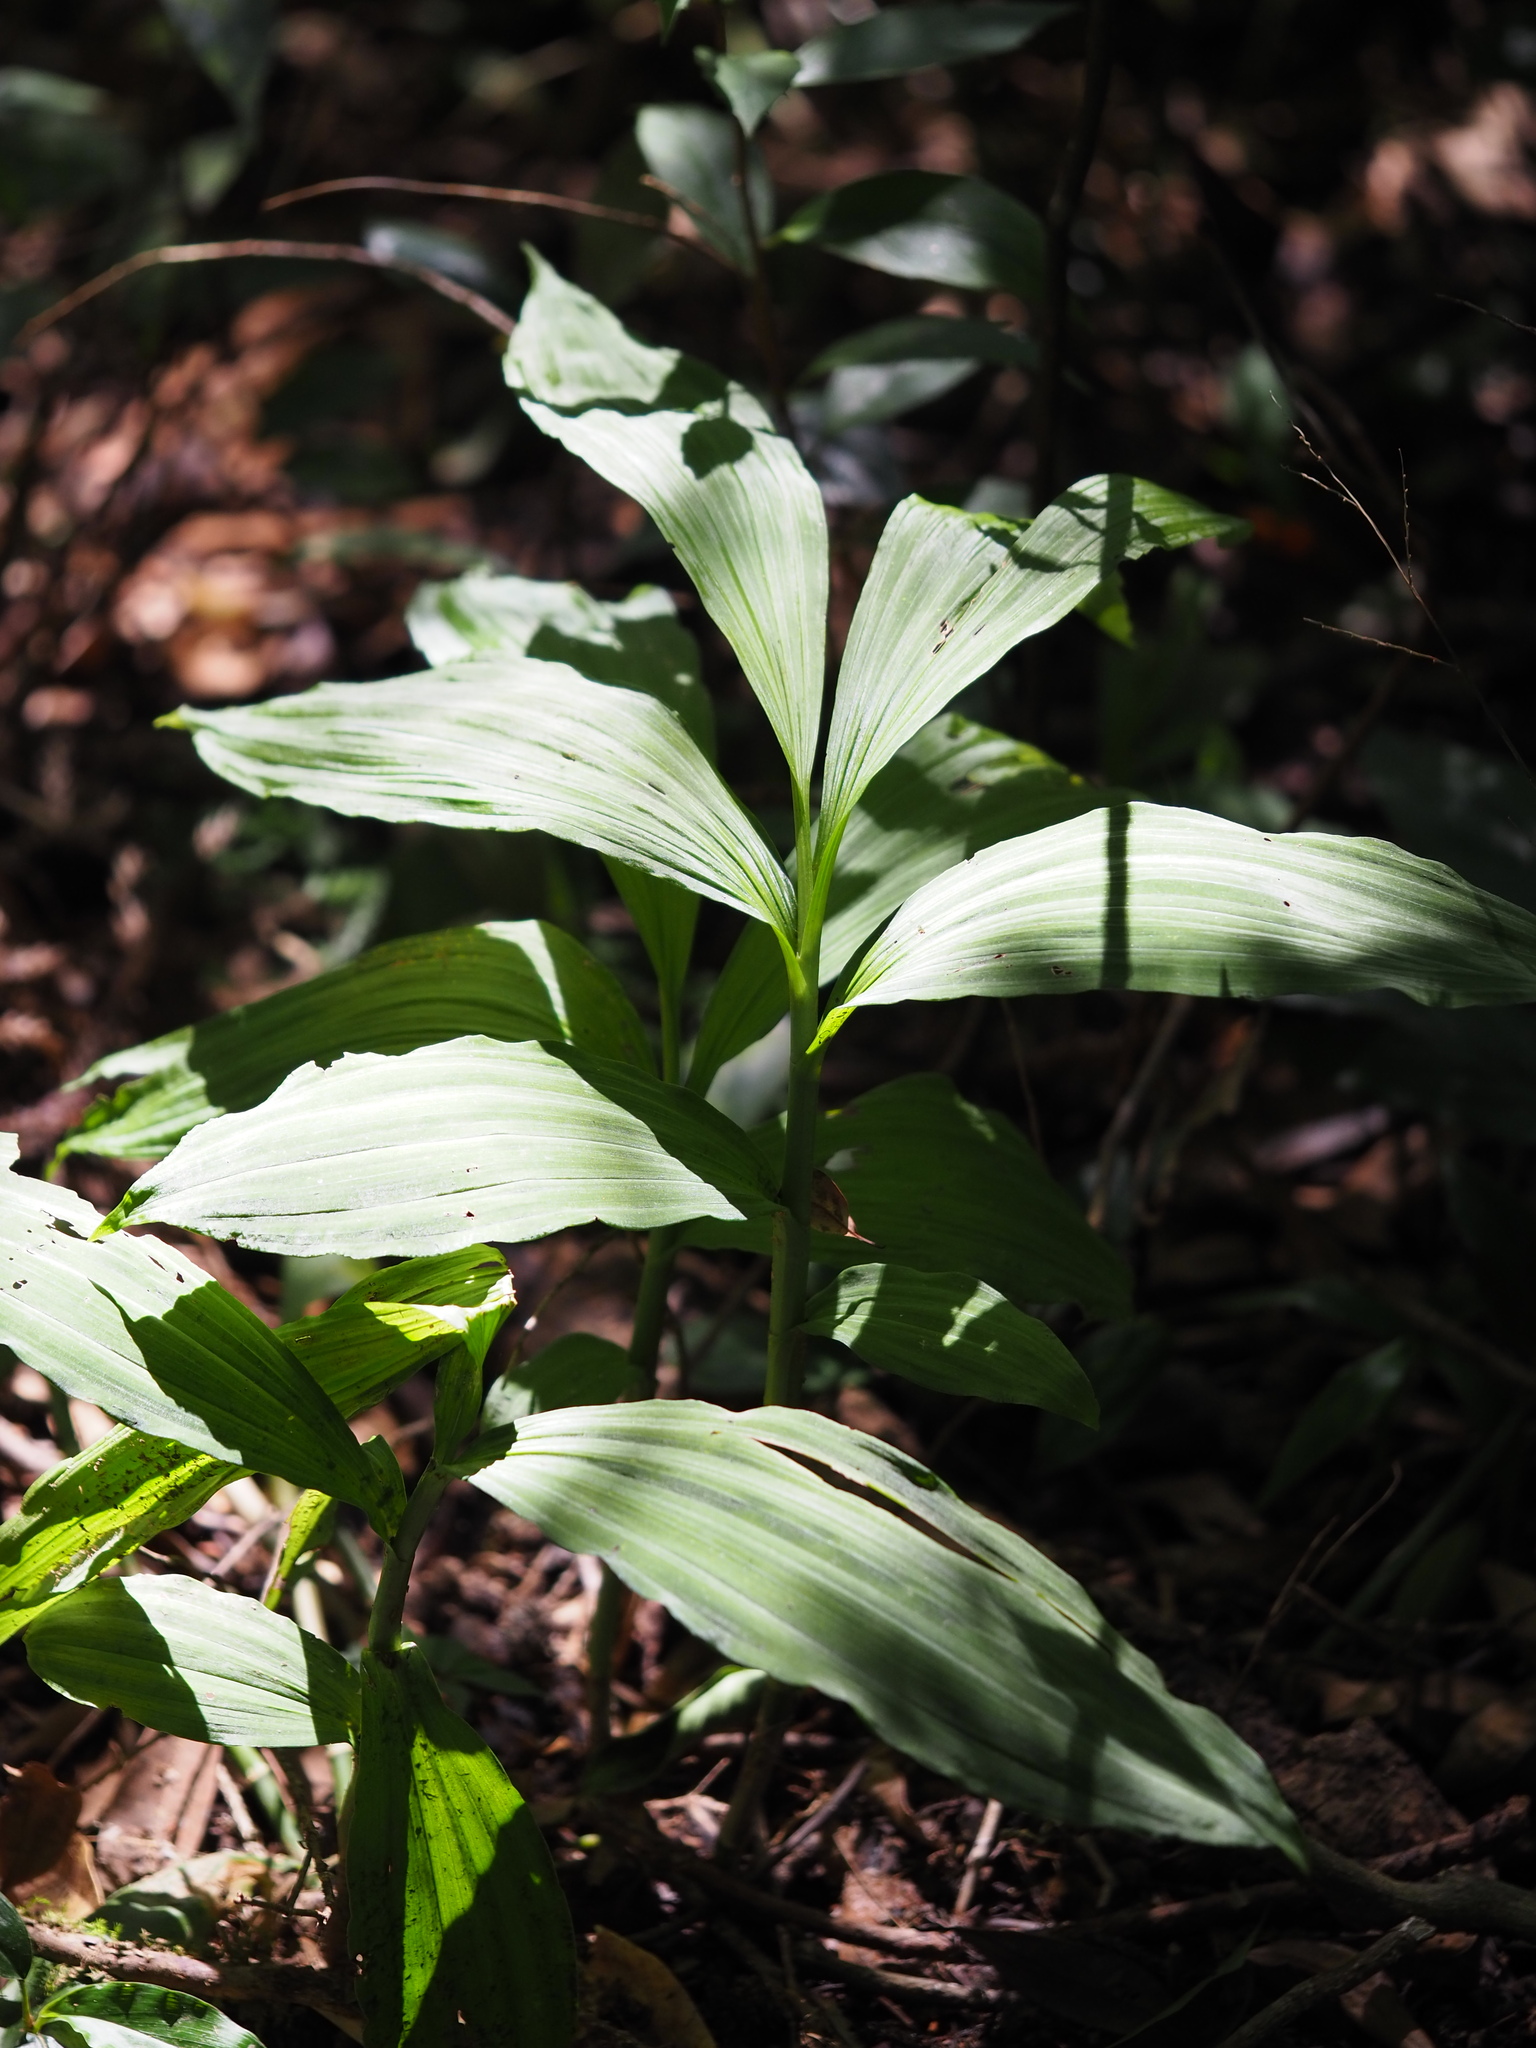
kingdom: Plantae
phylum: Tracheophyta
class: Liliopsida
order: Asparagales
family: Orchidaceae
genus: Calanthe
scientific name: Calanthe obcordata
